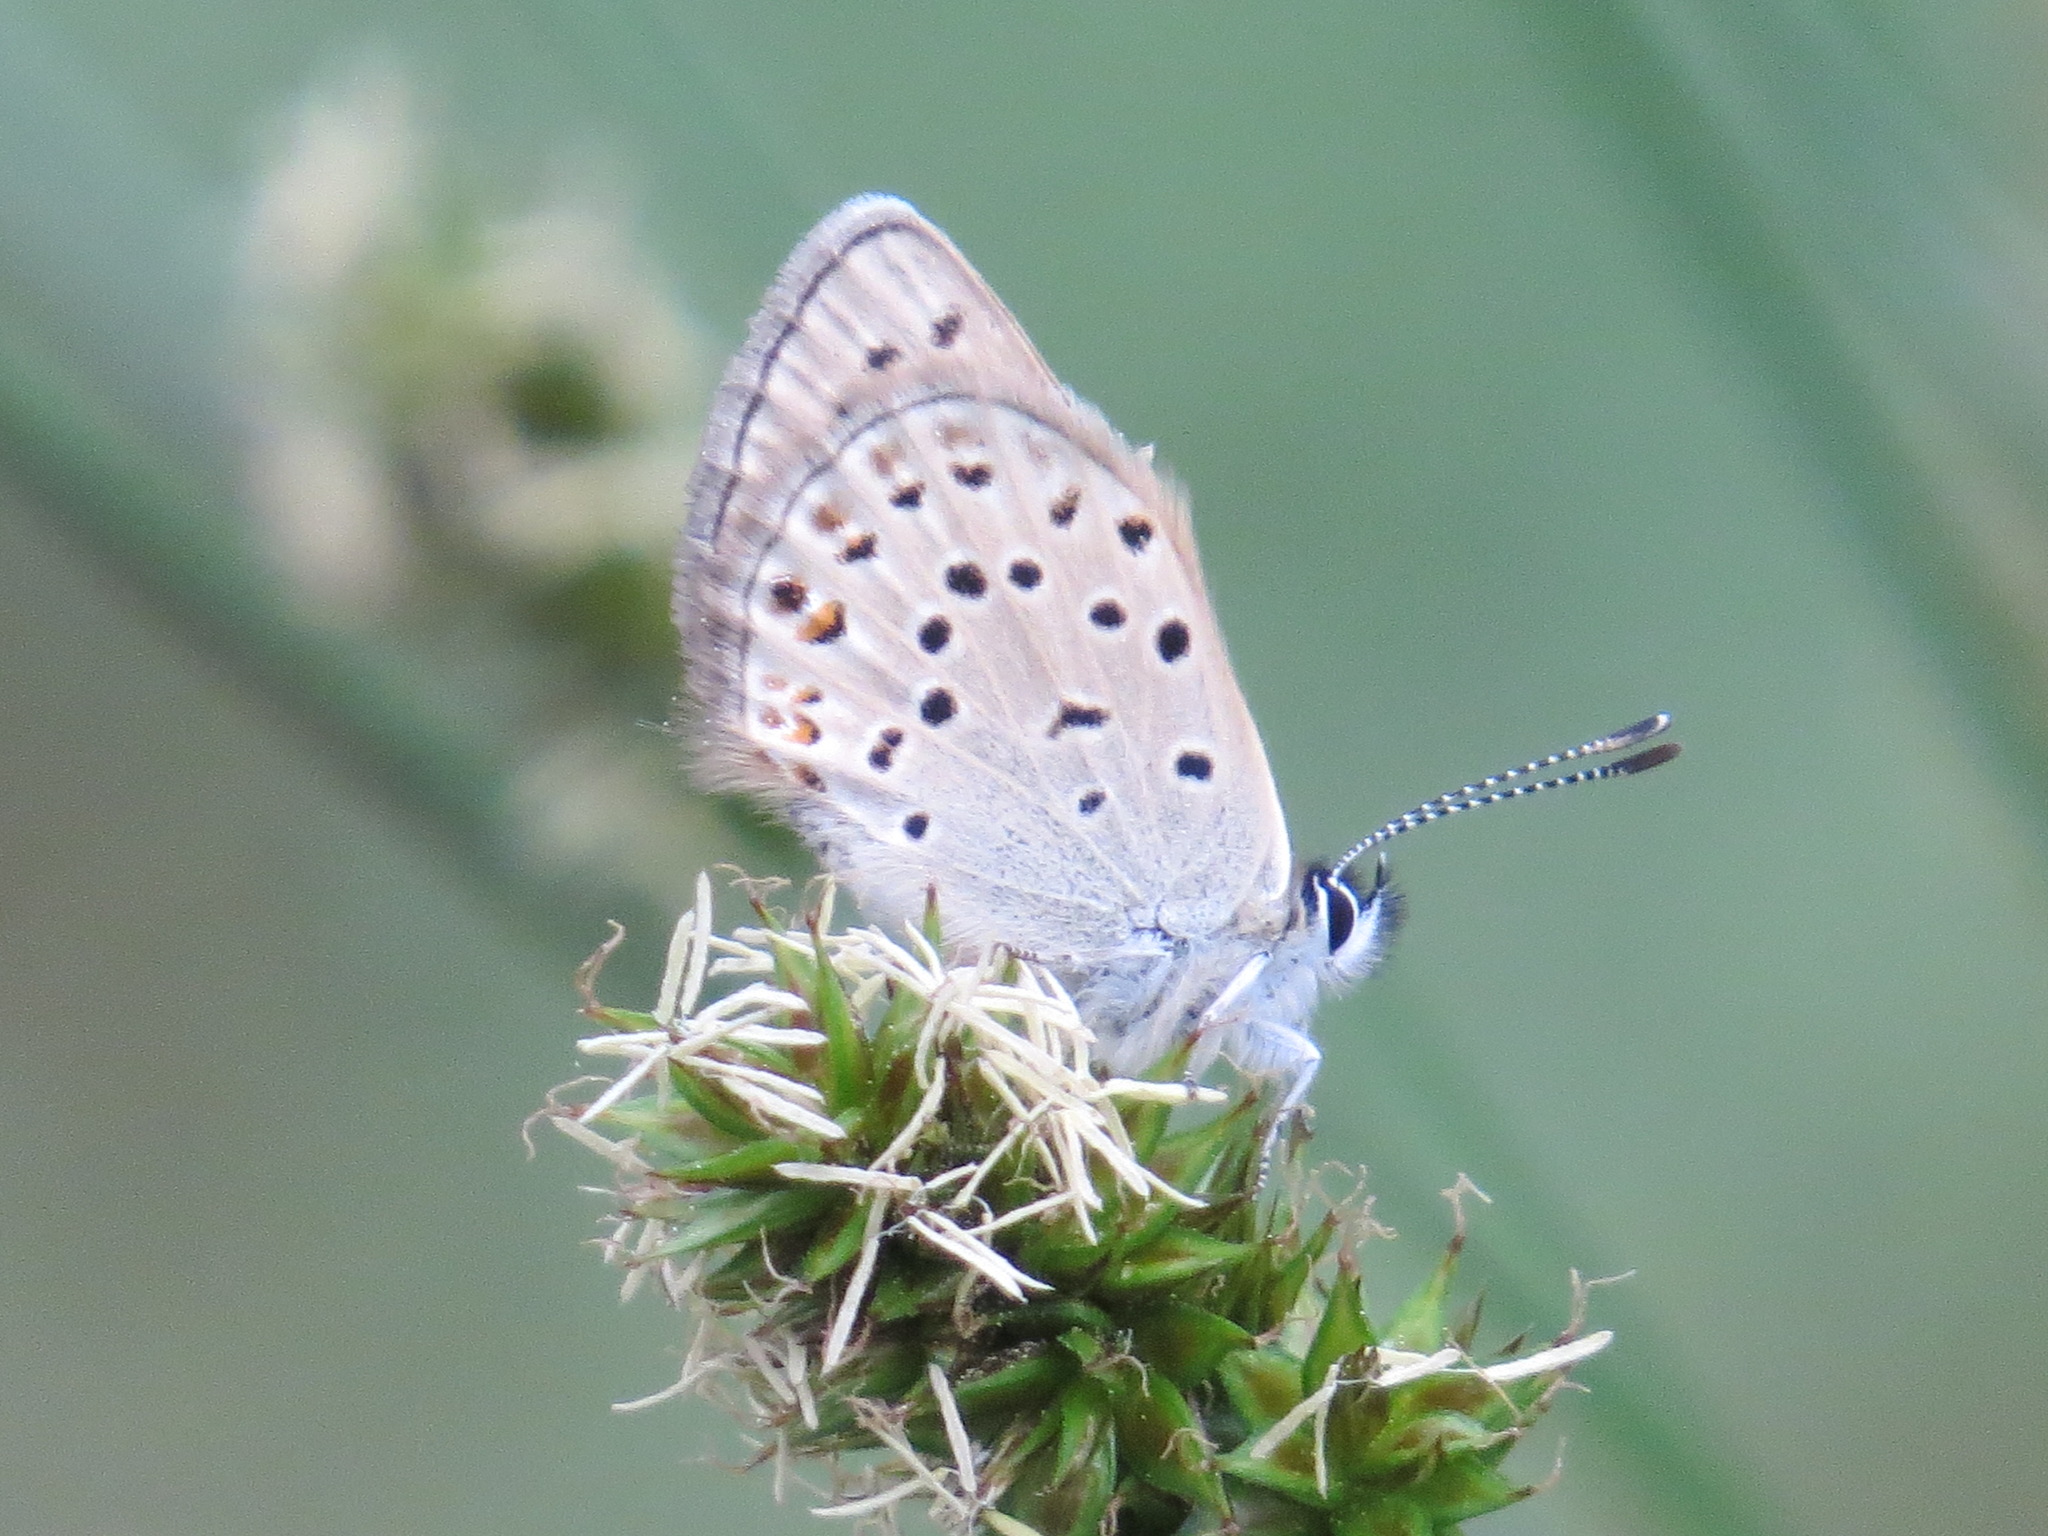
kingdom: Animalia
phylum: Arthropoda
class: Insecta
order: Lepidoptera
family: Lycaenidae
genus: Icaricia
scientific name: Icaricia saepiolus
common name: Greenish blue
